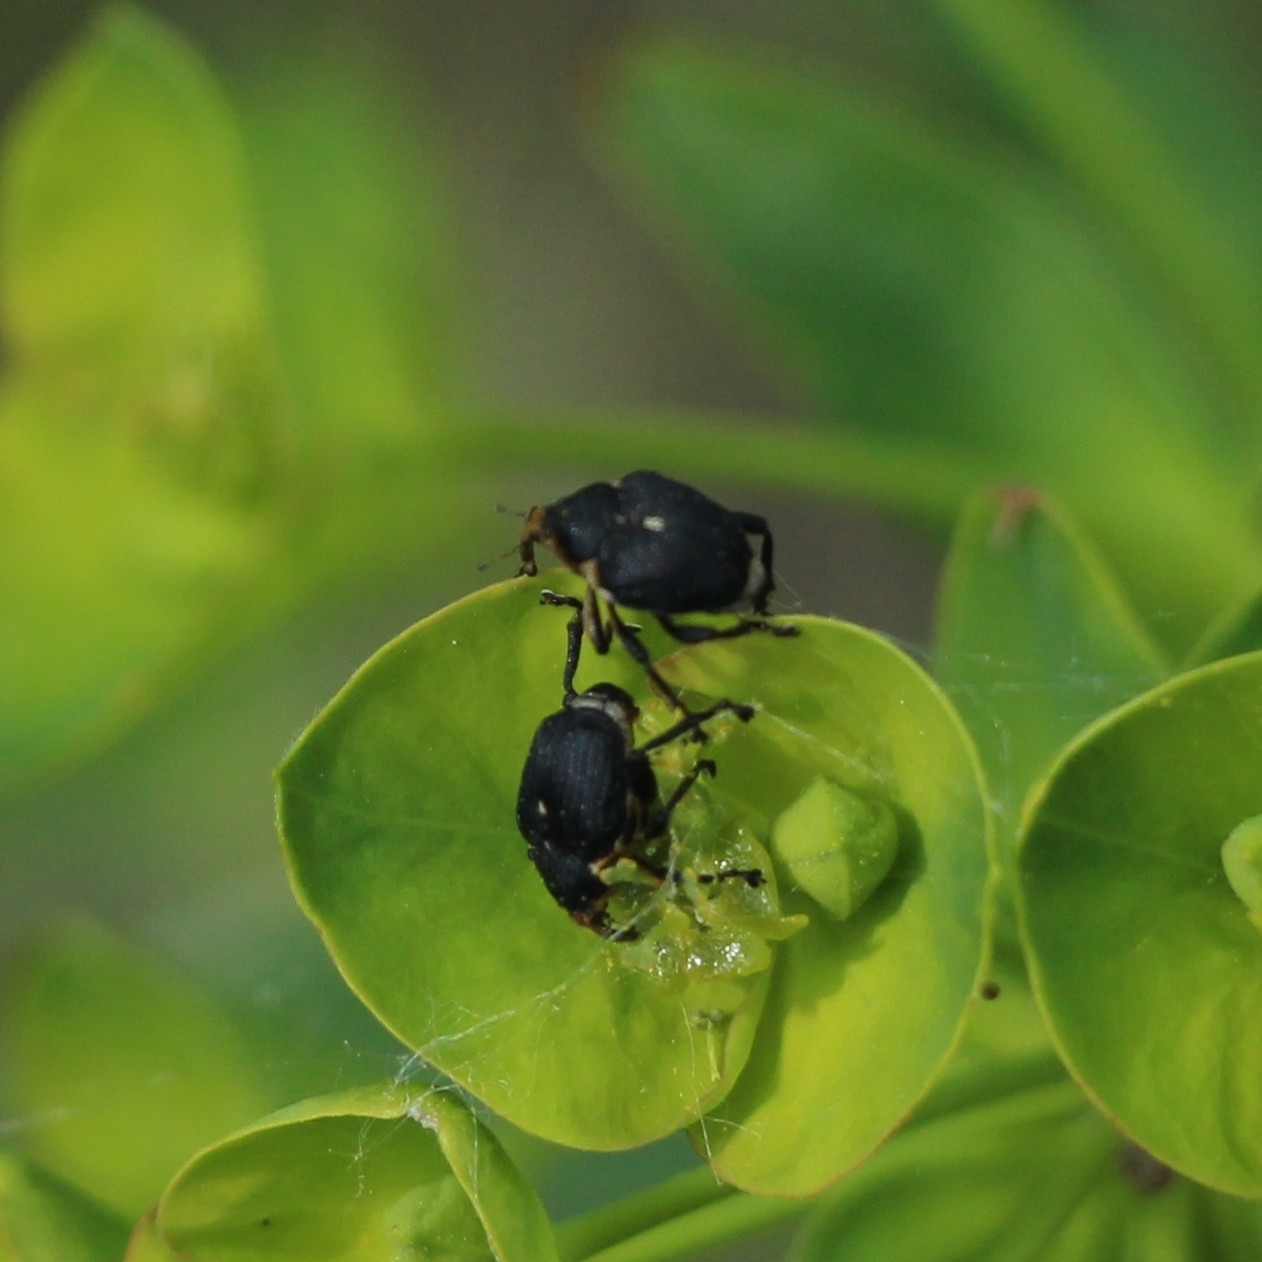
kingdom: Animalia
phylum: Arthropoda
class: Insecta
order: Coleoptera
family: Curculionidae
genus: Mononychus
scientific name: Mononychus punctumalbum
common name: Iris weevil
